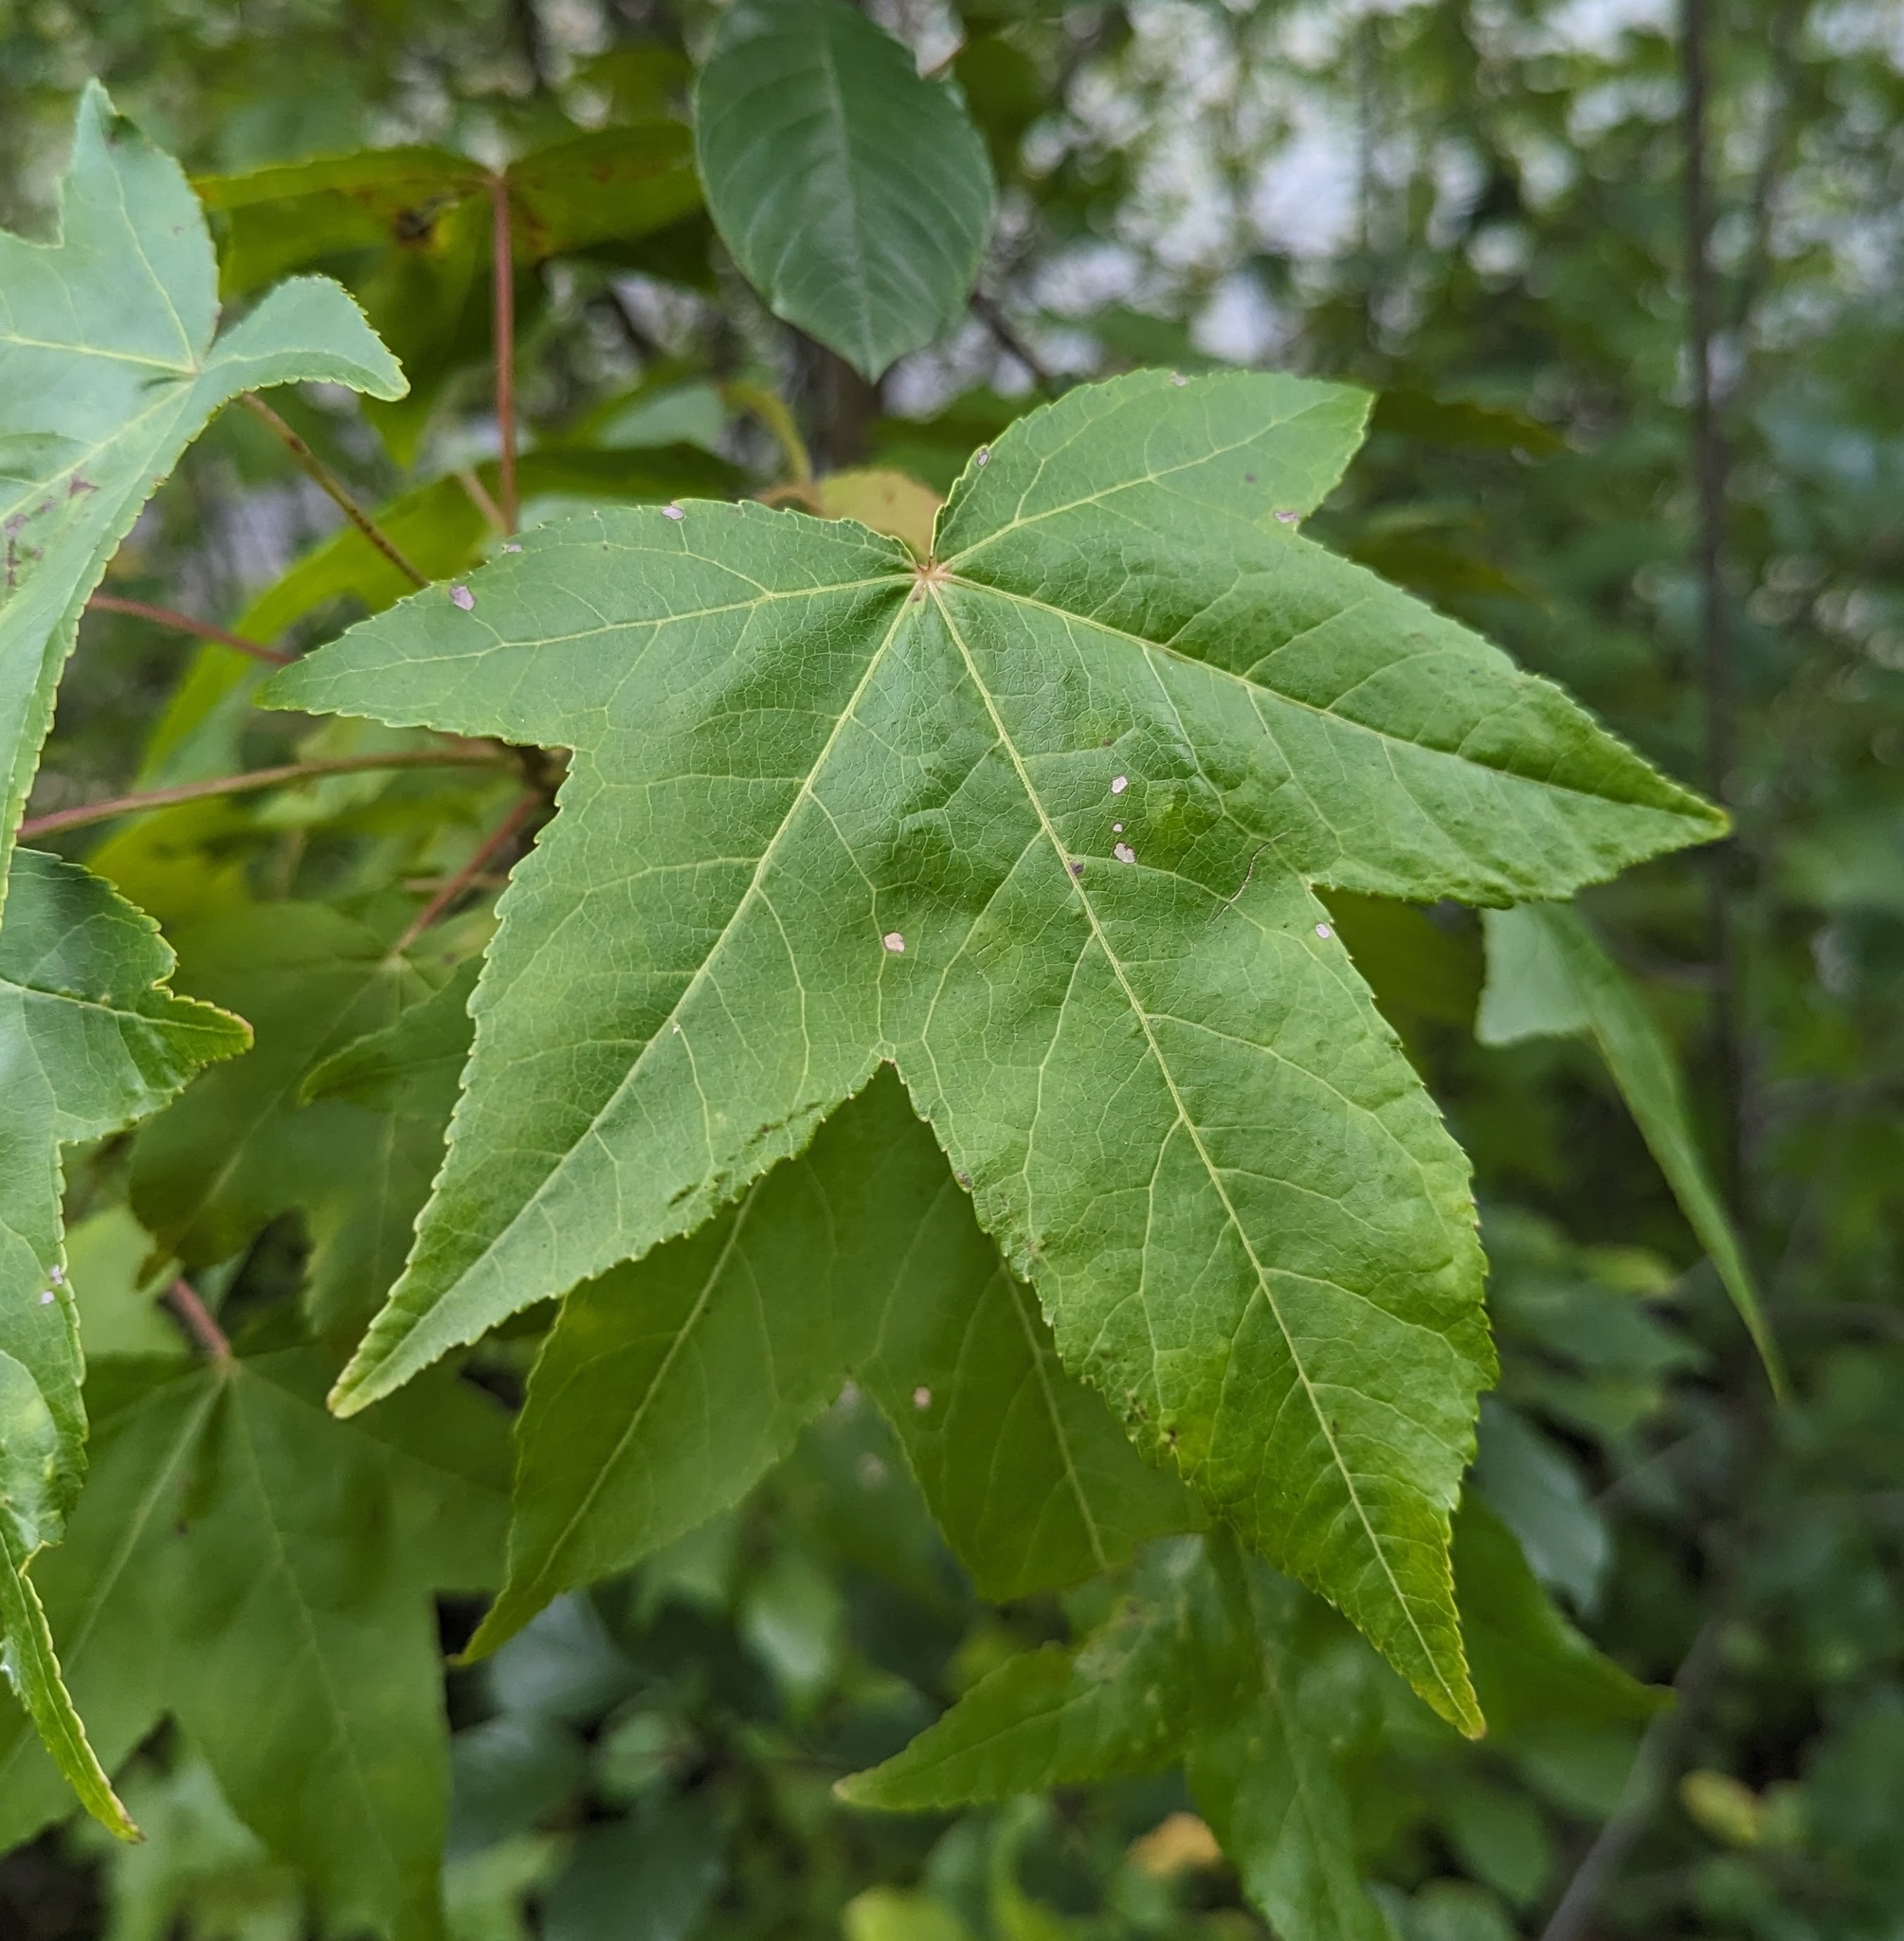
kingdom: Plantae
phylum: Tracheophyta
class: Magnoliopsida
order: Saxifragales
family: Altingiaceae
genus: Liquidambar
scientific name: Liquidambar styraciflua
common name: Sweet gum
